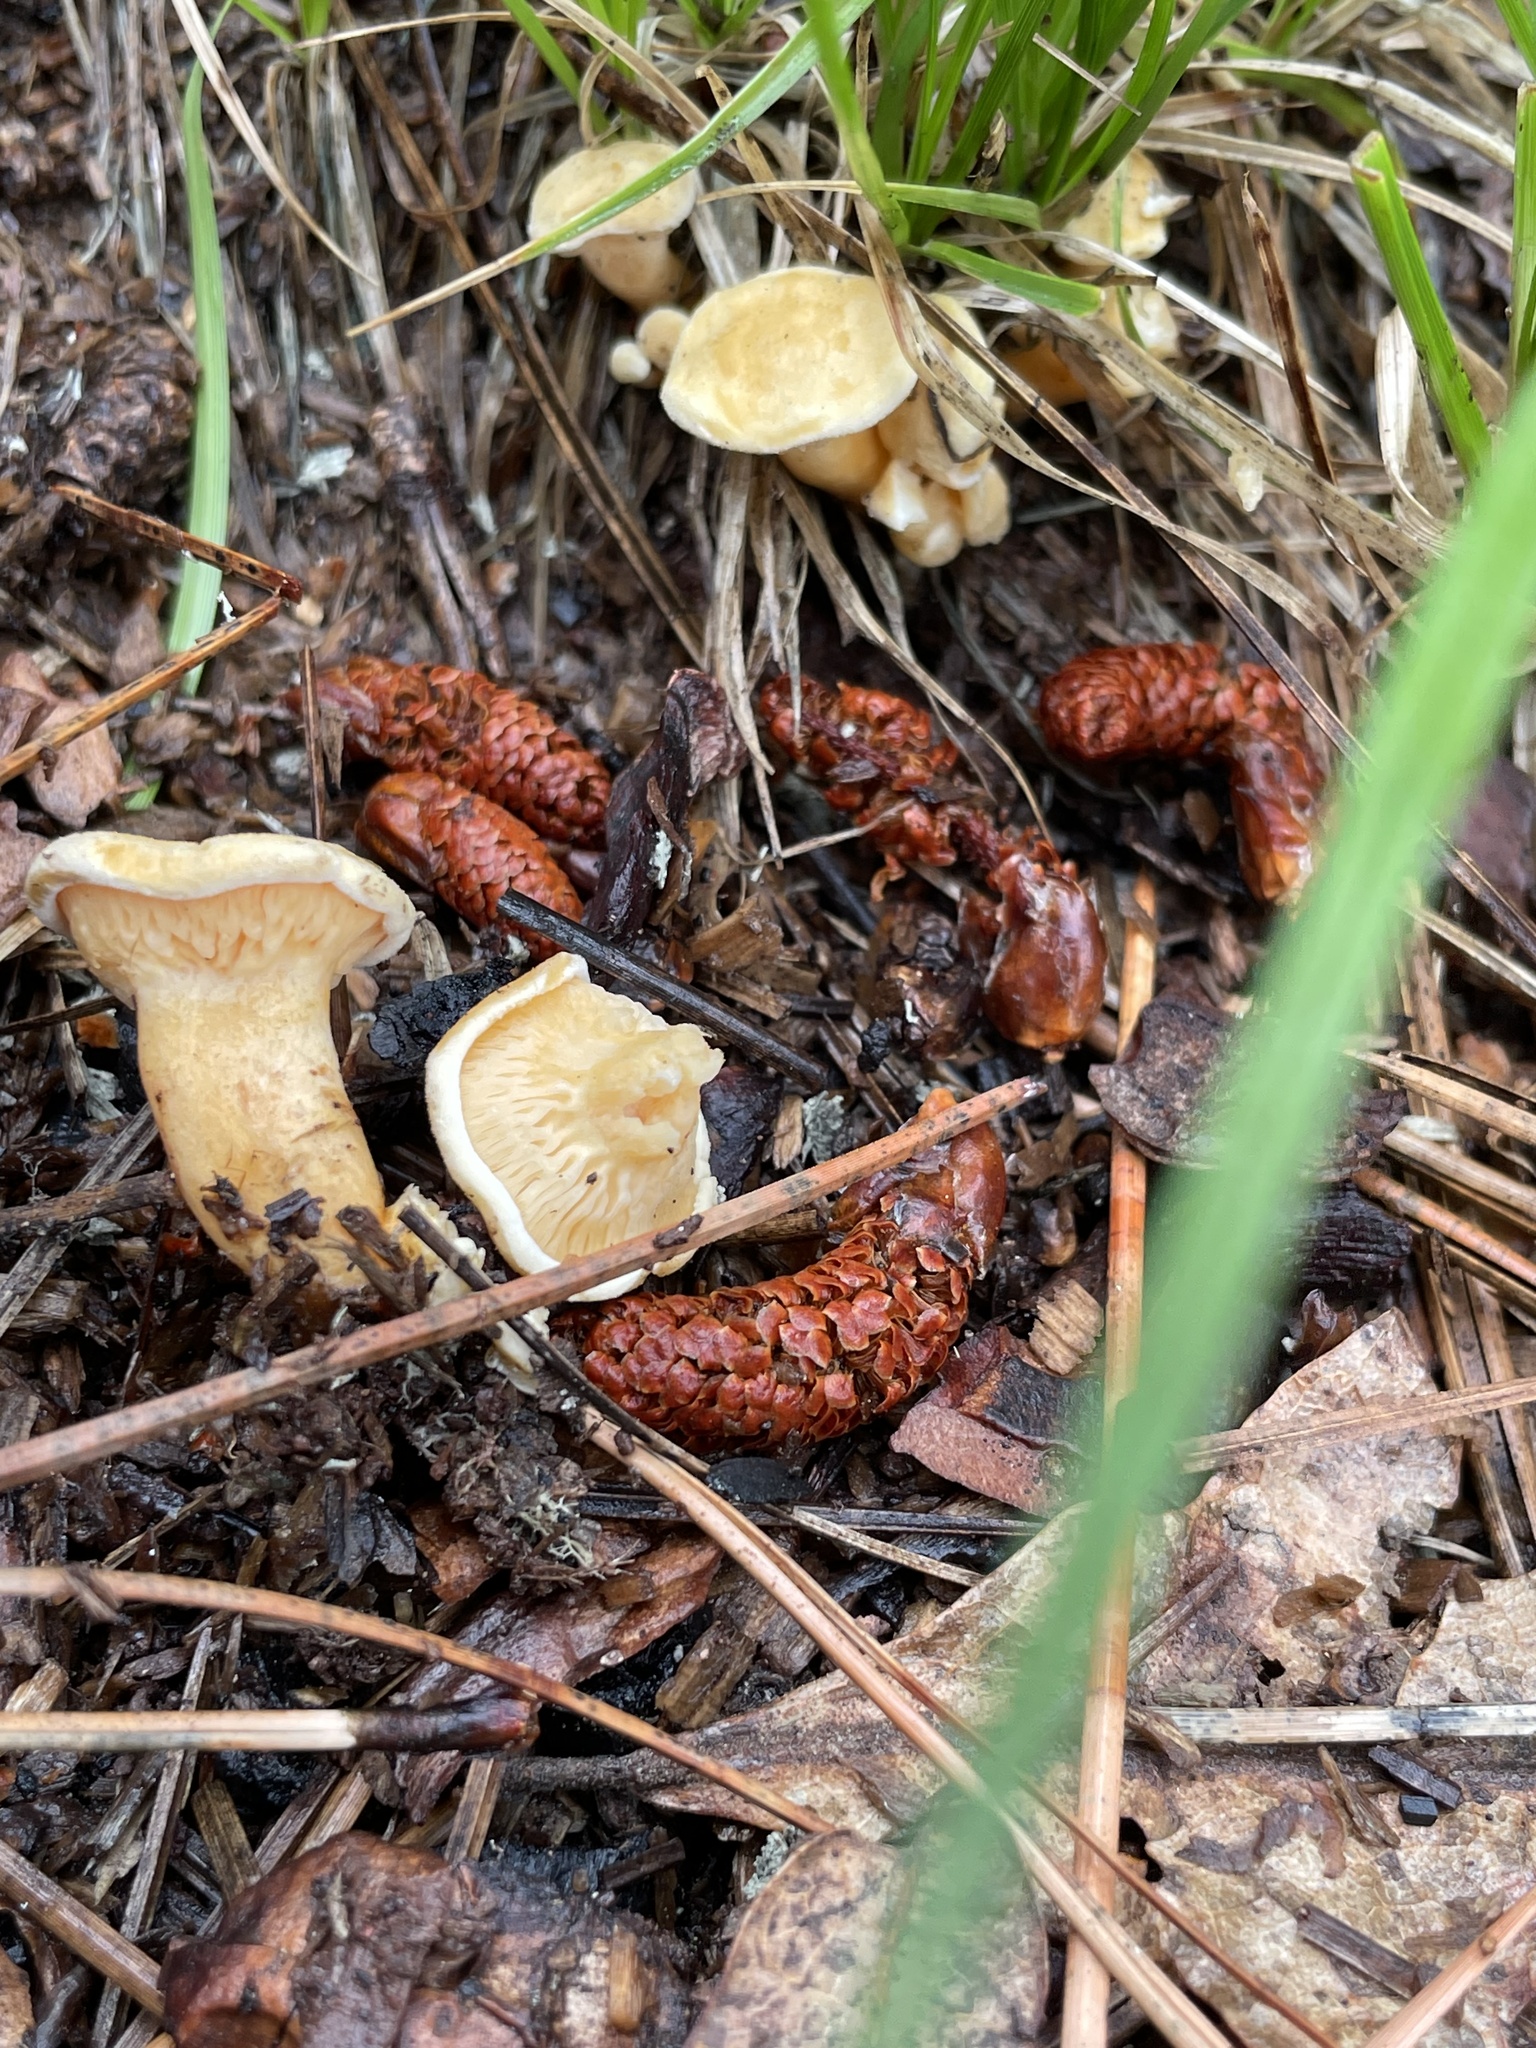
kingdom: Fungi
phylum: Basidiomycota
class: Agaricomycetes
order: Boletales
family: Hygrophoropsidaceae
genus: Hygrophoropsis
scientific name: Hygrophoropsis aurantiaca
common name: False chanterelle
